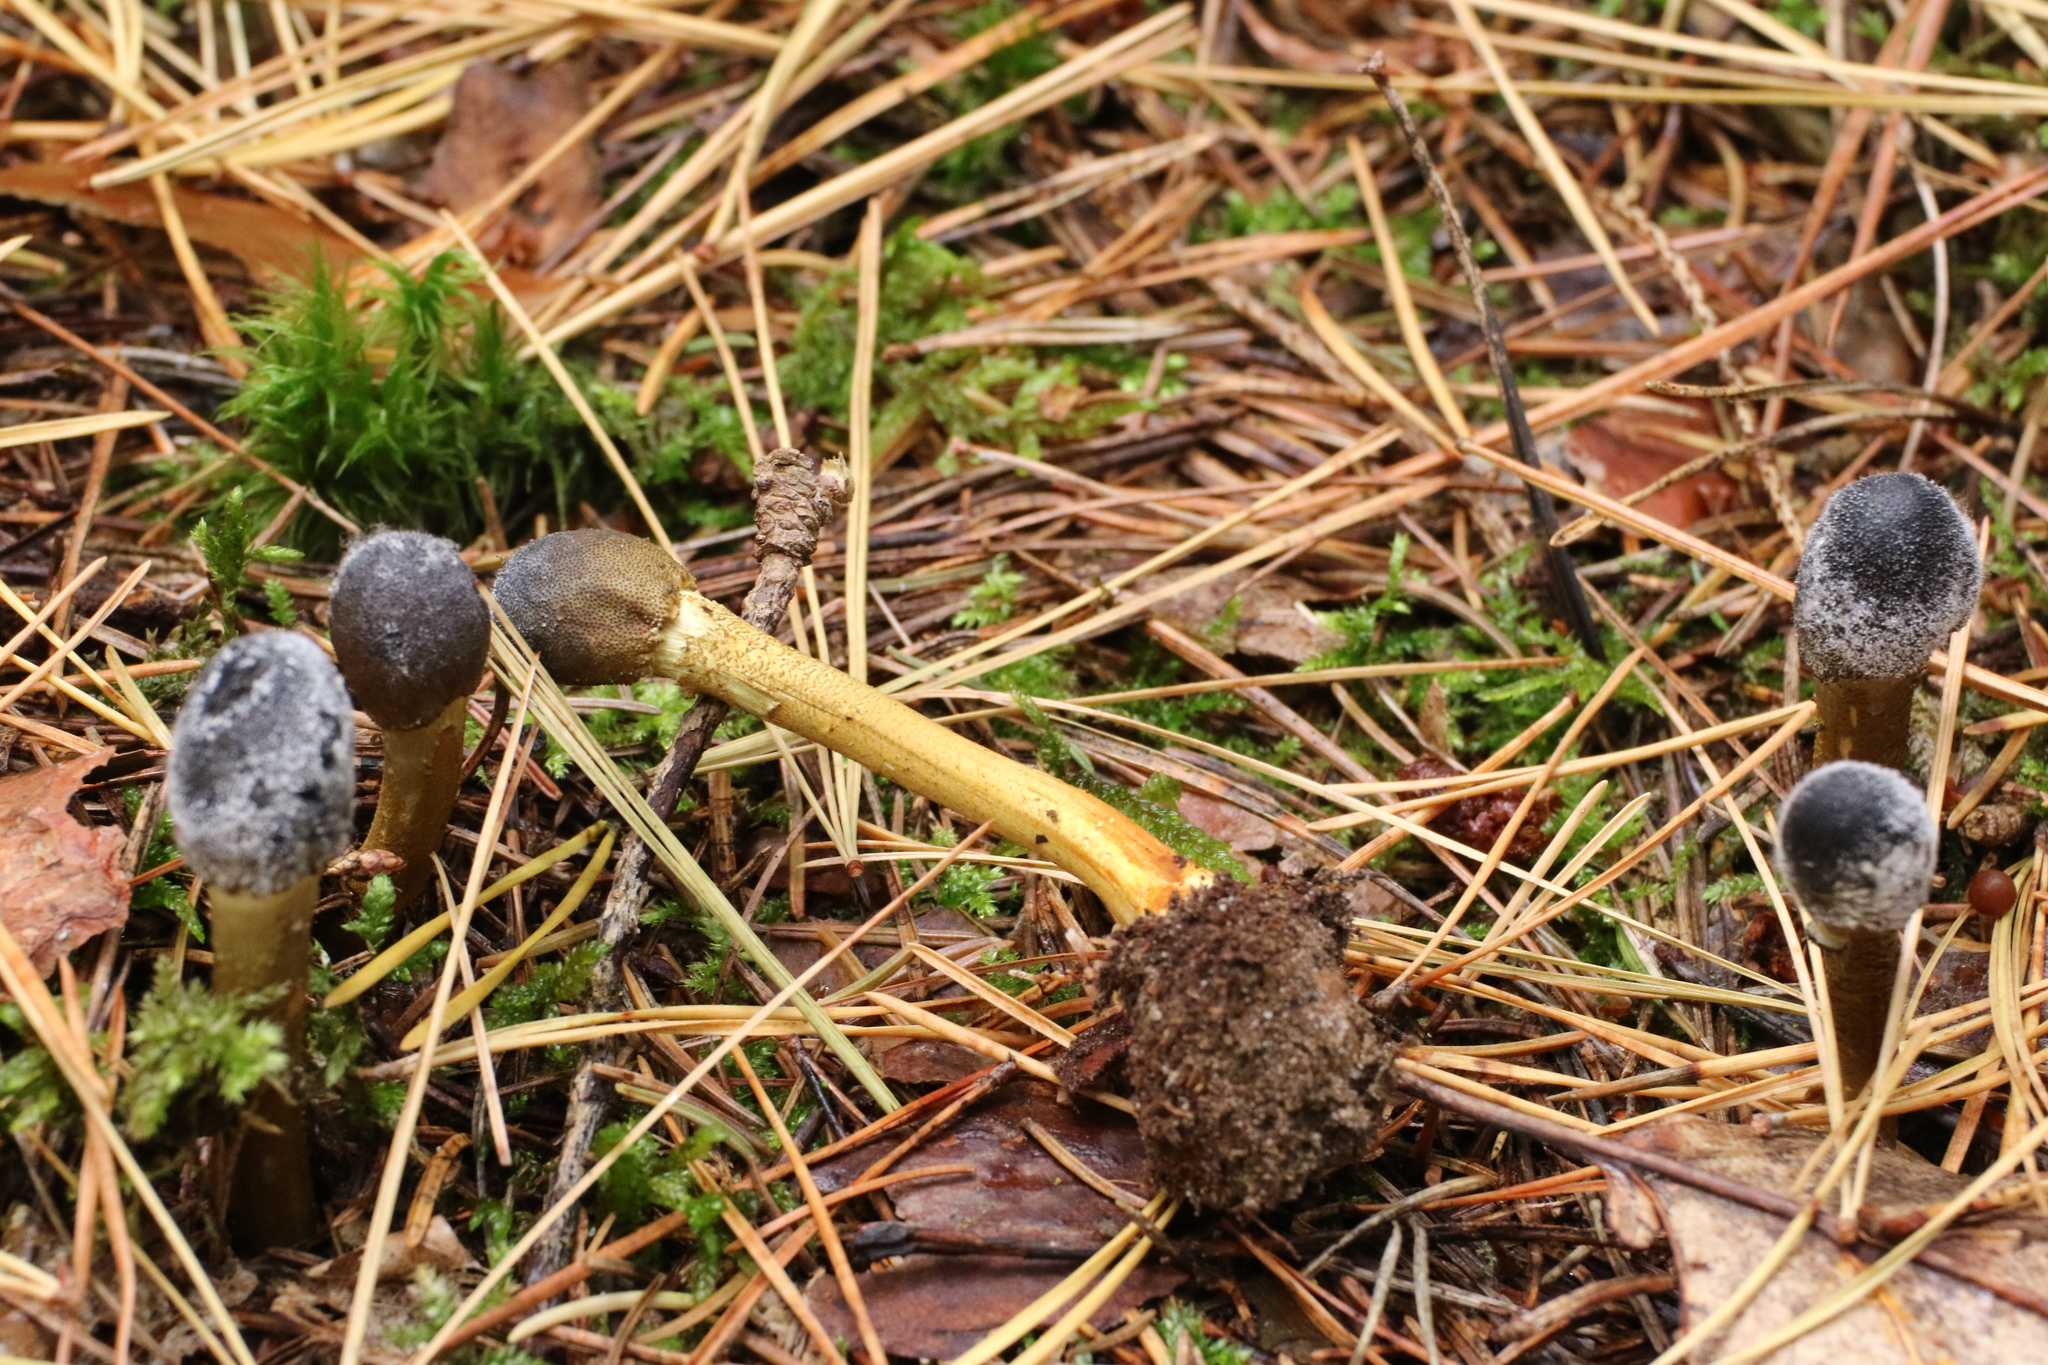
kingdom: Fungi
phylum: Ascomycota
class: Sordariomycetes
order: Hypocreales
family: Ophiocordycipitaceae
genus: Tolypocladium
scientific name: Tolypocladium capitatum
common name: Capitate truffleclub
